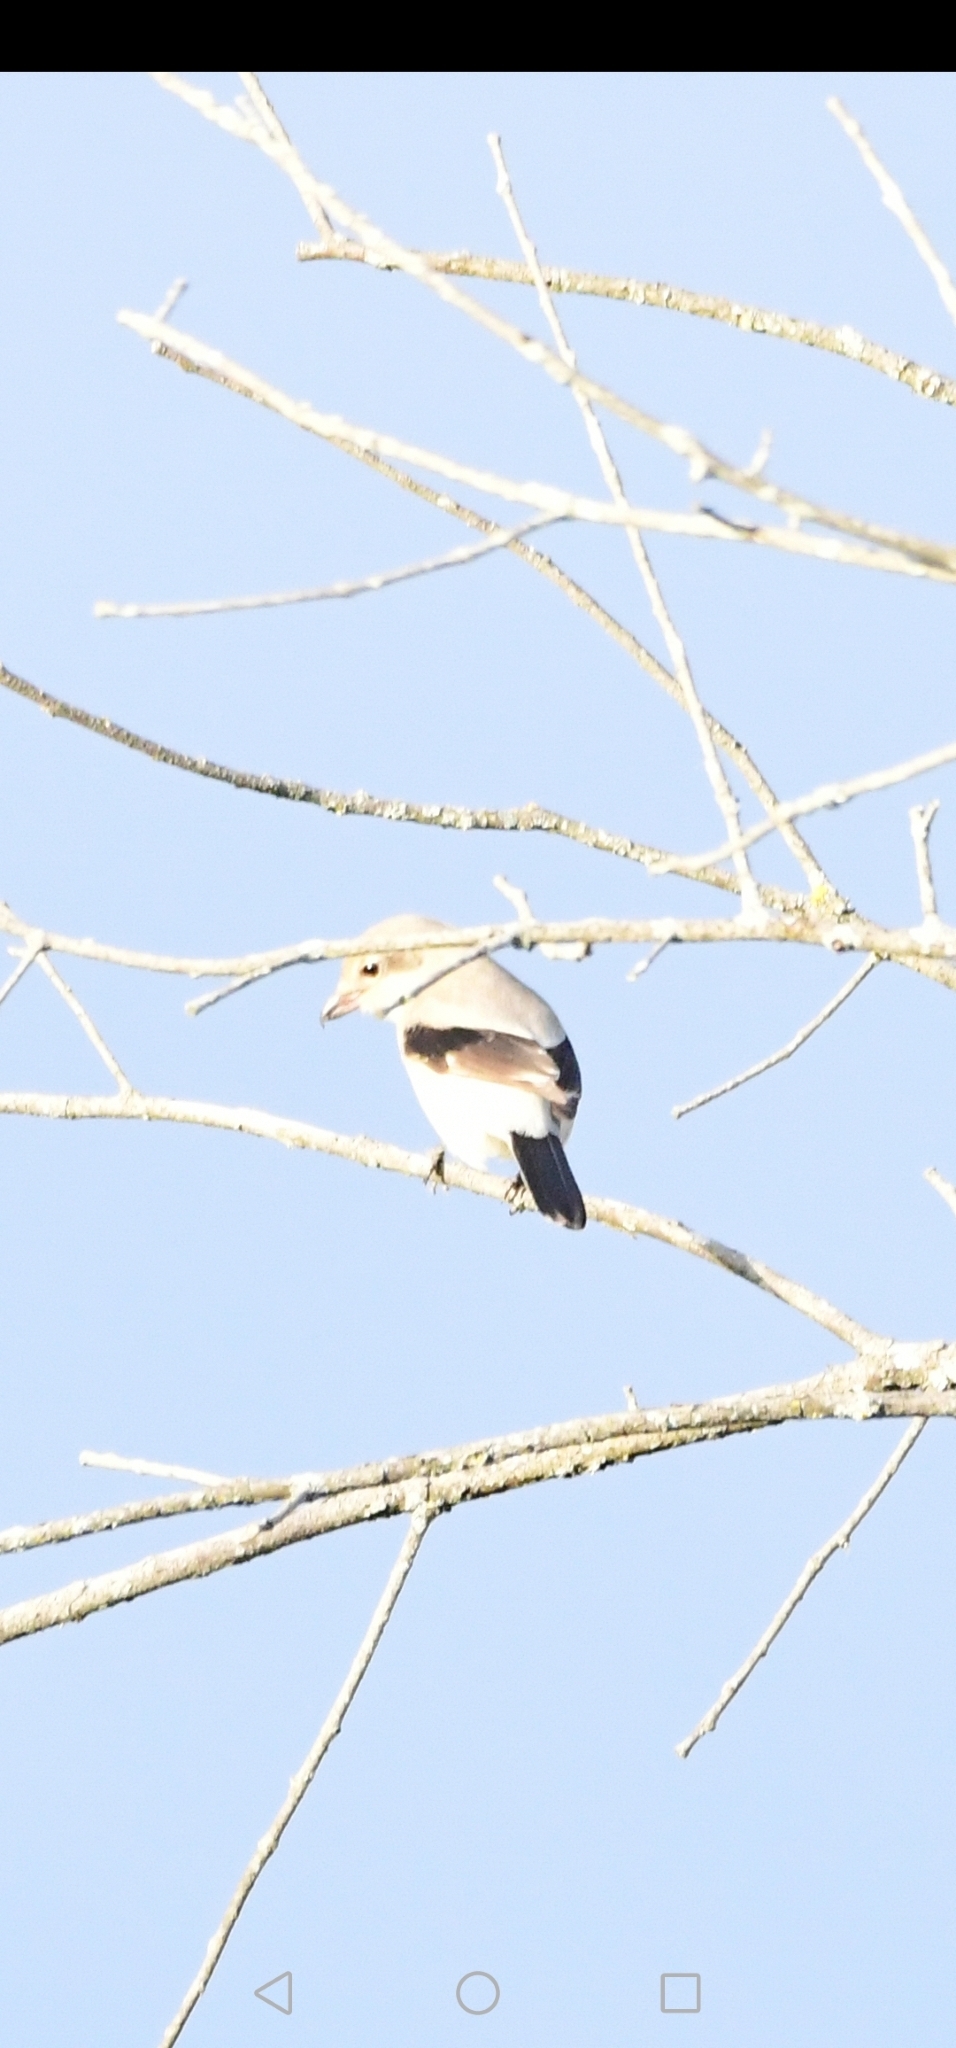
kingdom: Animalia
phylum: Chordata
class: Aves
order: Passeriformes
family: Laniidae
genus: Lanius
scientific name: Lanius borealis
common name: Northern shrike
